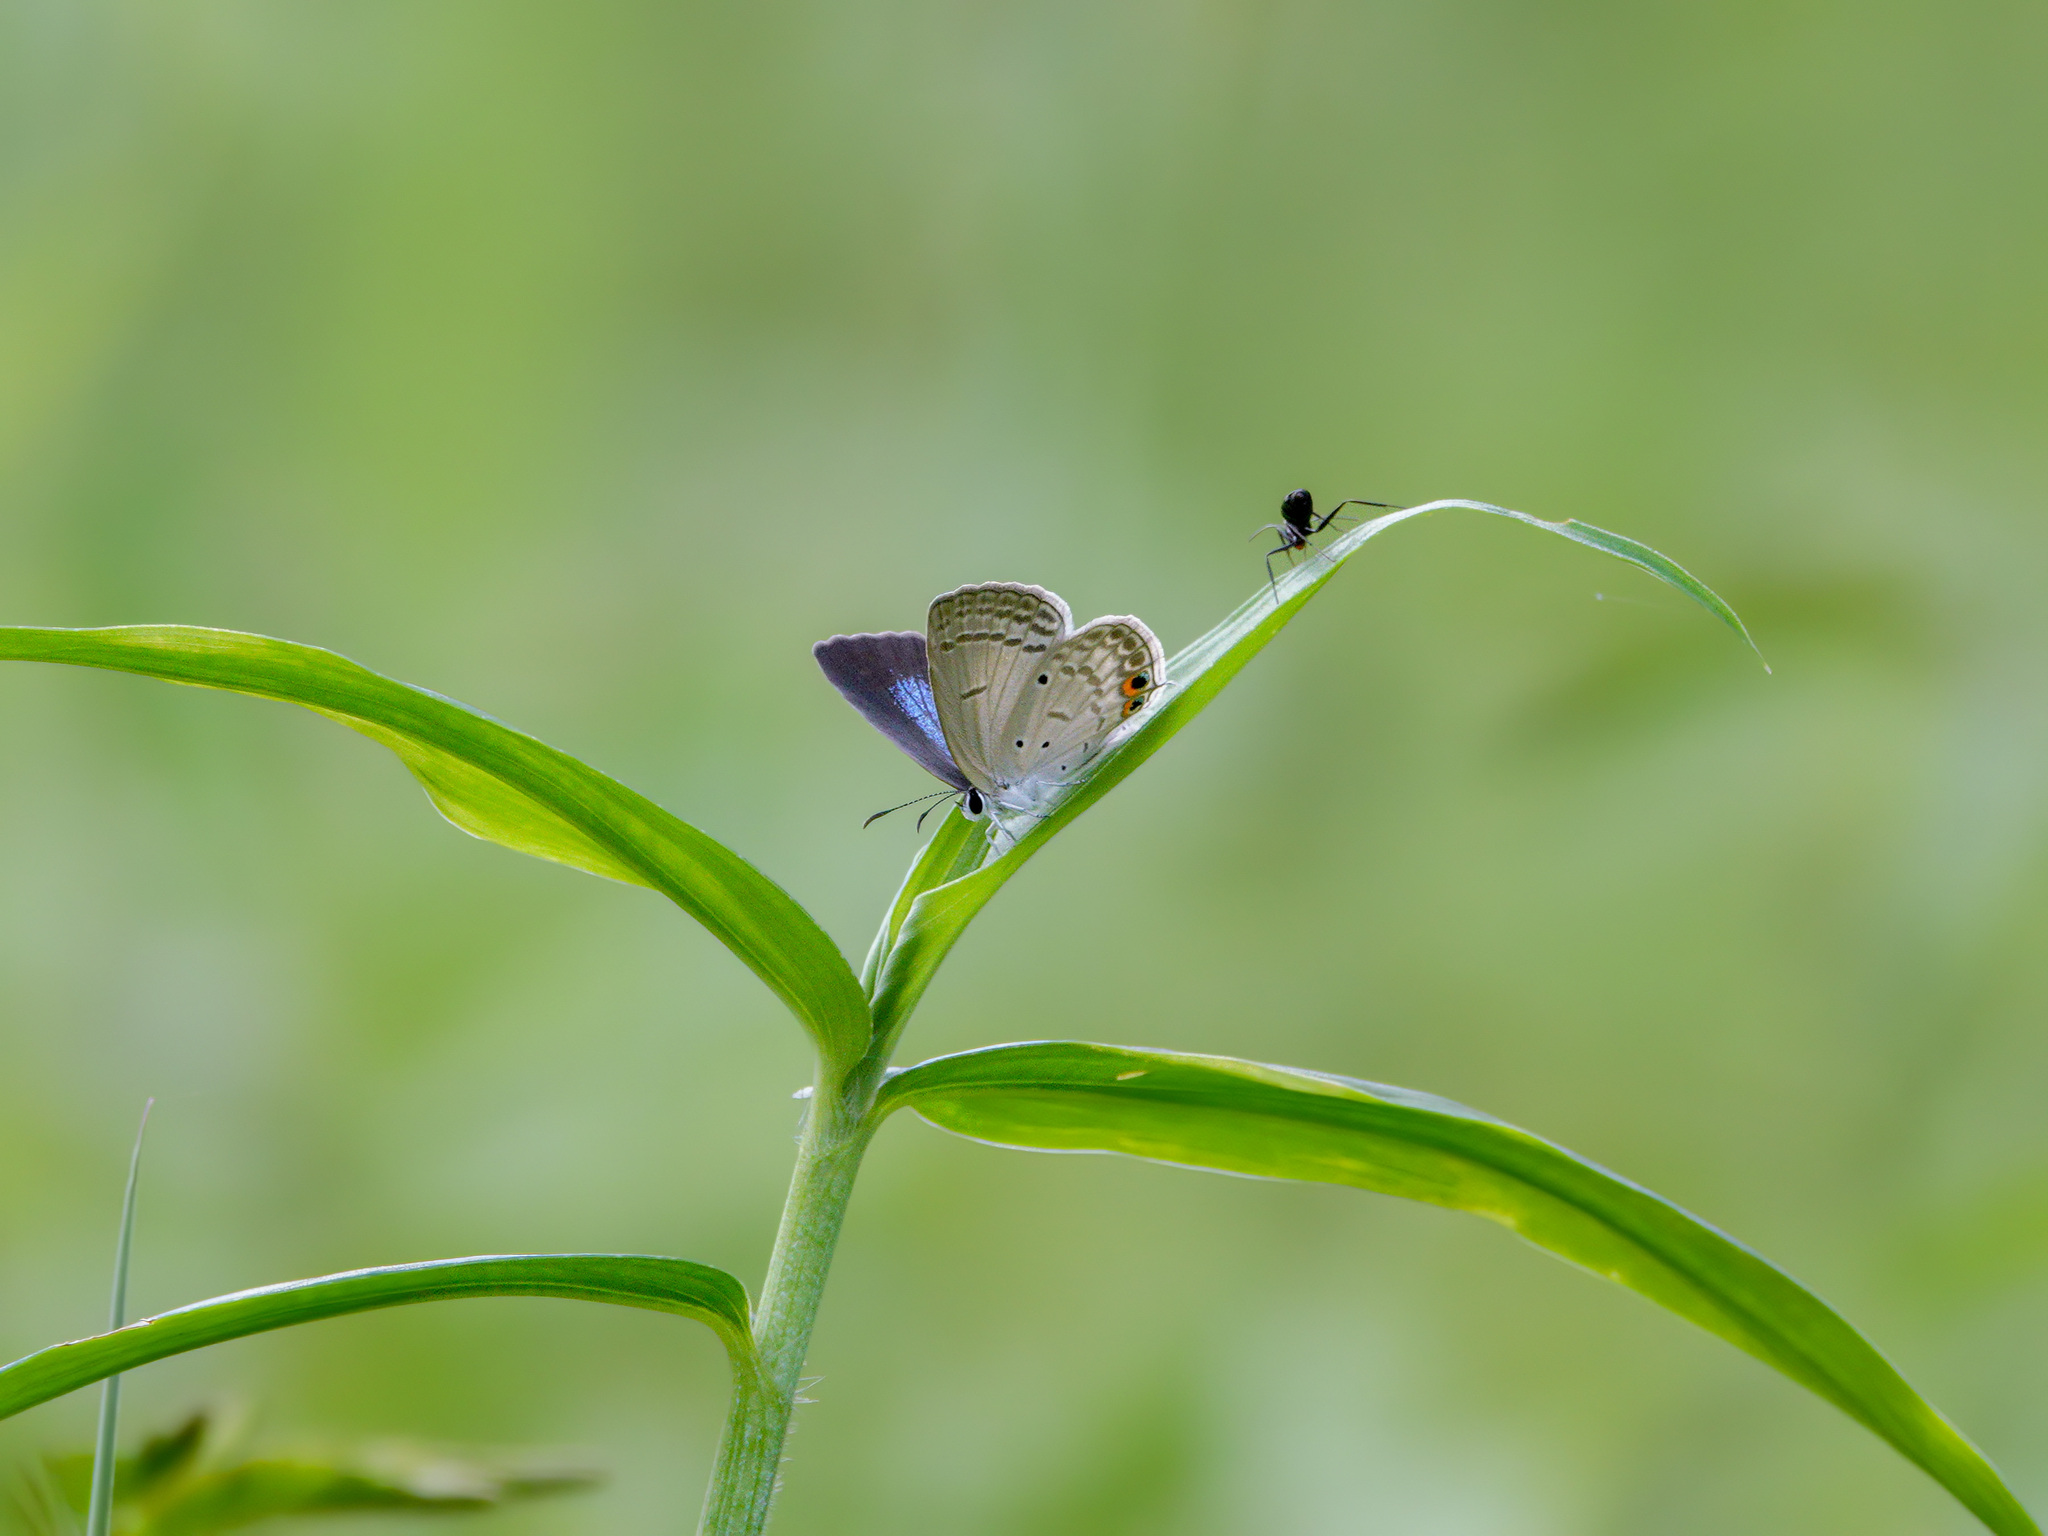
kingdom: Animalia
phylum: Arthropoda
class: Insecta
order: Lepidoptera
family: Lycaenidae
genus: Euchrysops
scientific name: Euchrysops cnejus
